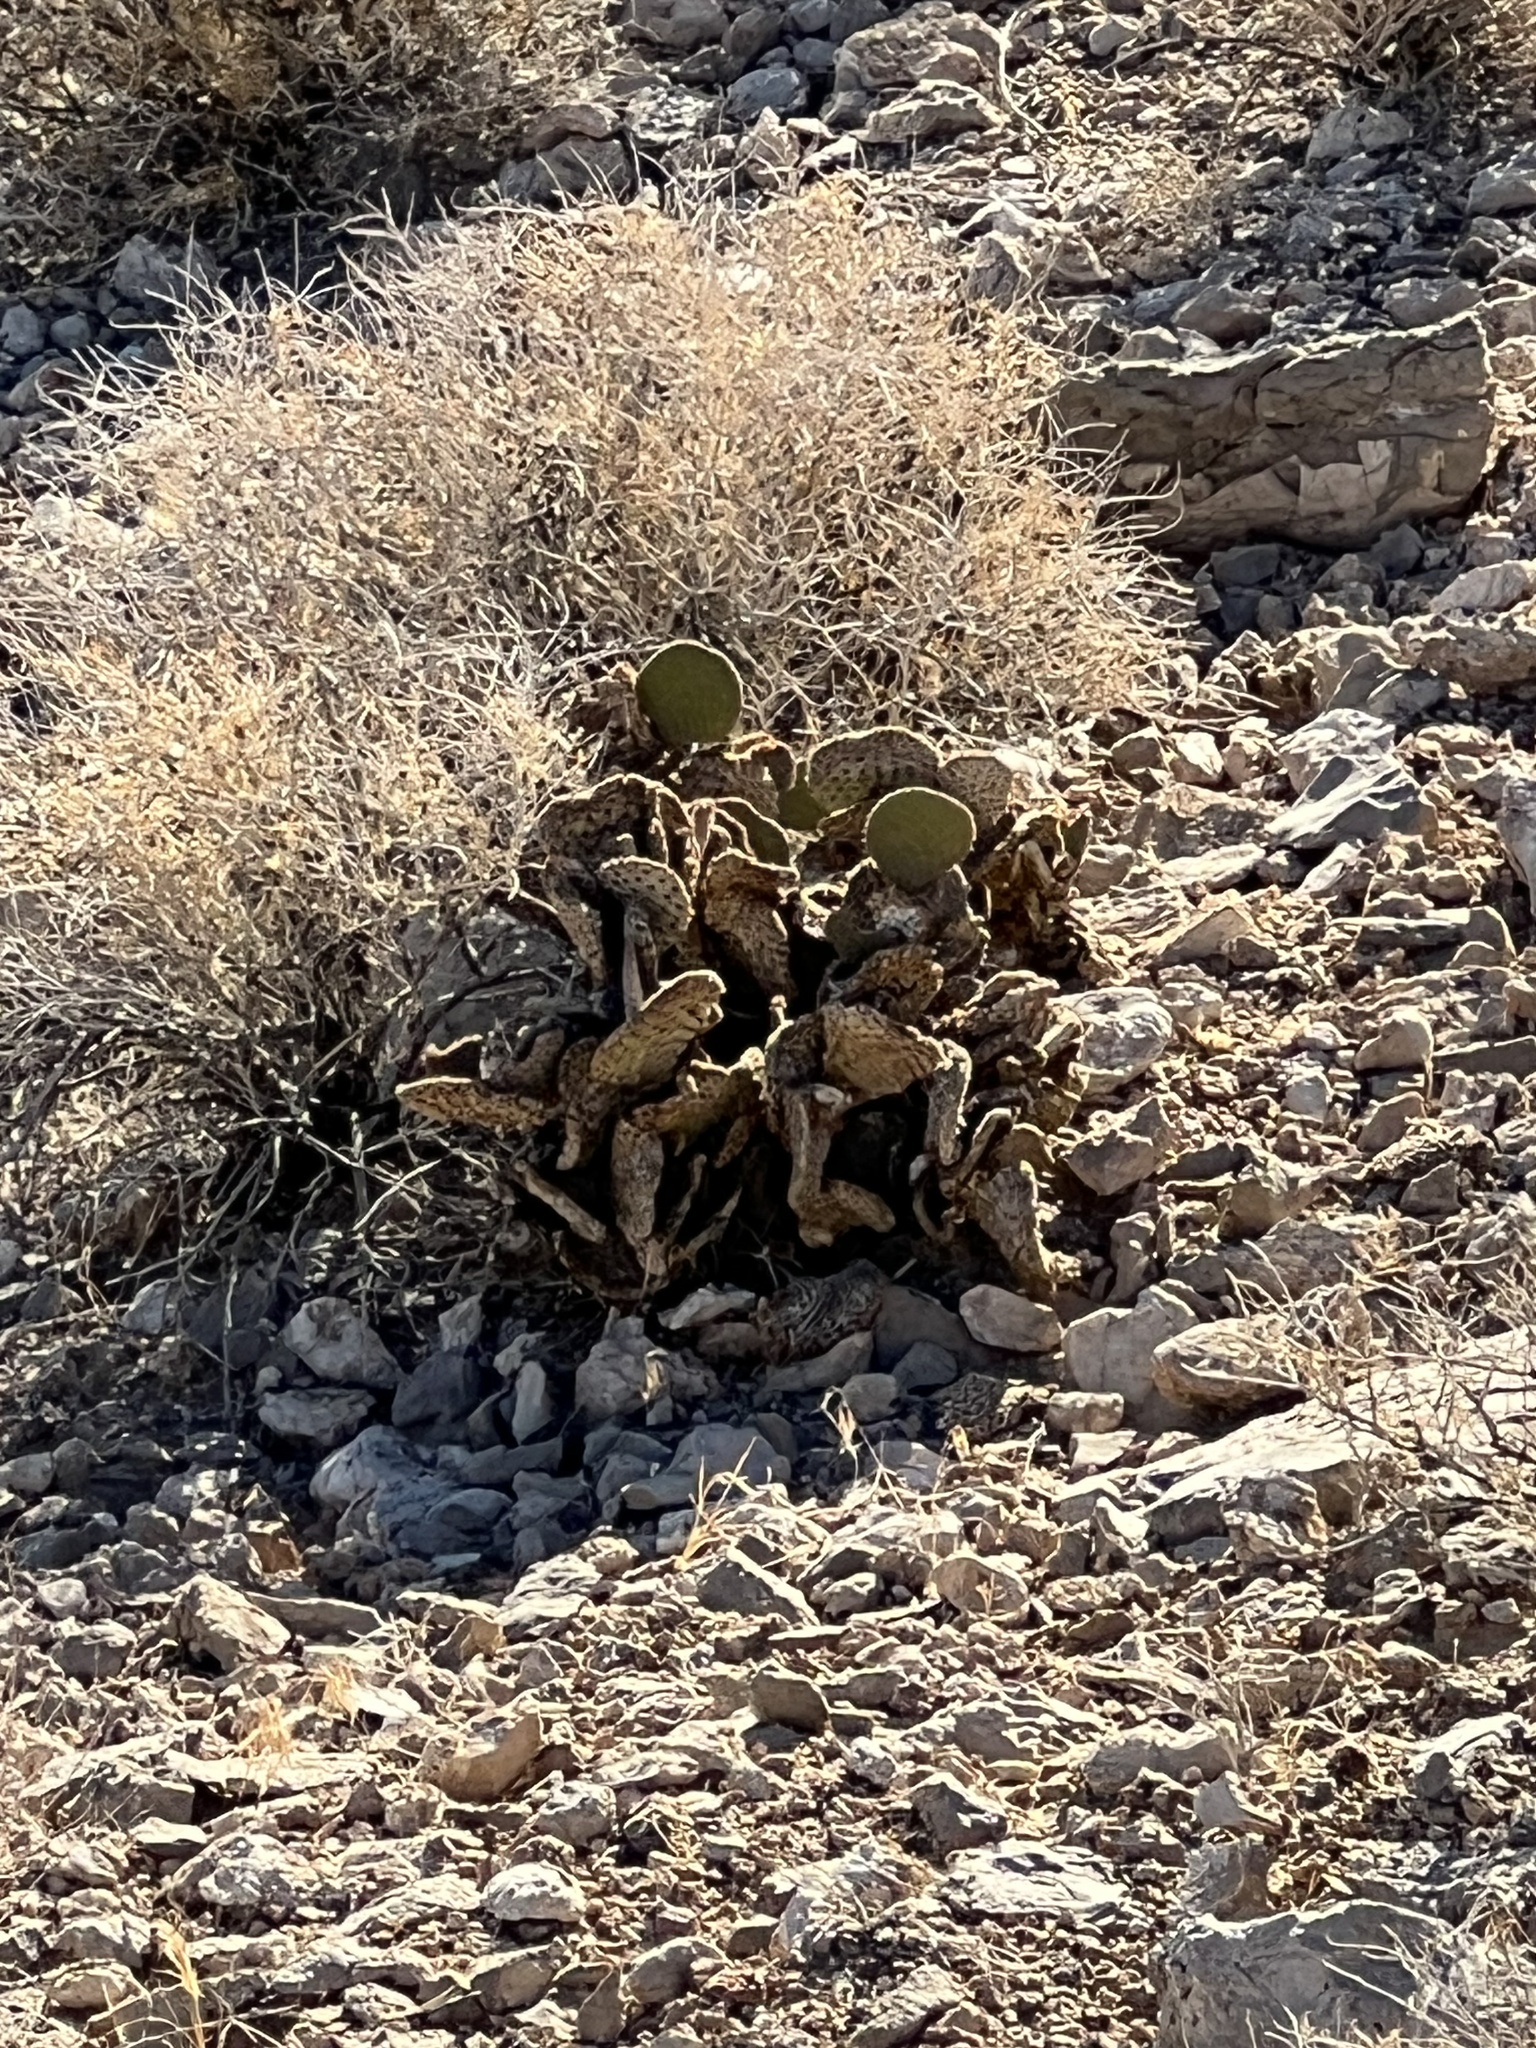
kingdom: Plantae
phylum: Tracheophyta
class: Magnoliopsida
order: Caryophyllales
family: Cactaceae
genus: Opuntia
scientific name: Opuntia basilaris
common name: Beavertail prickly-pear
